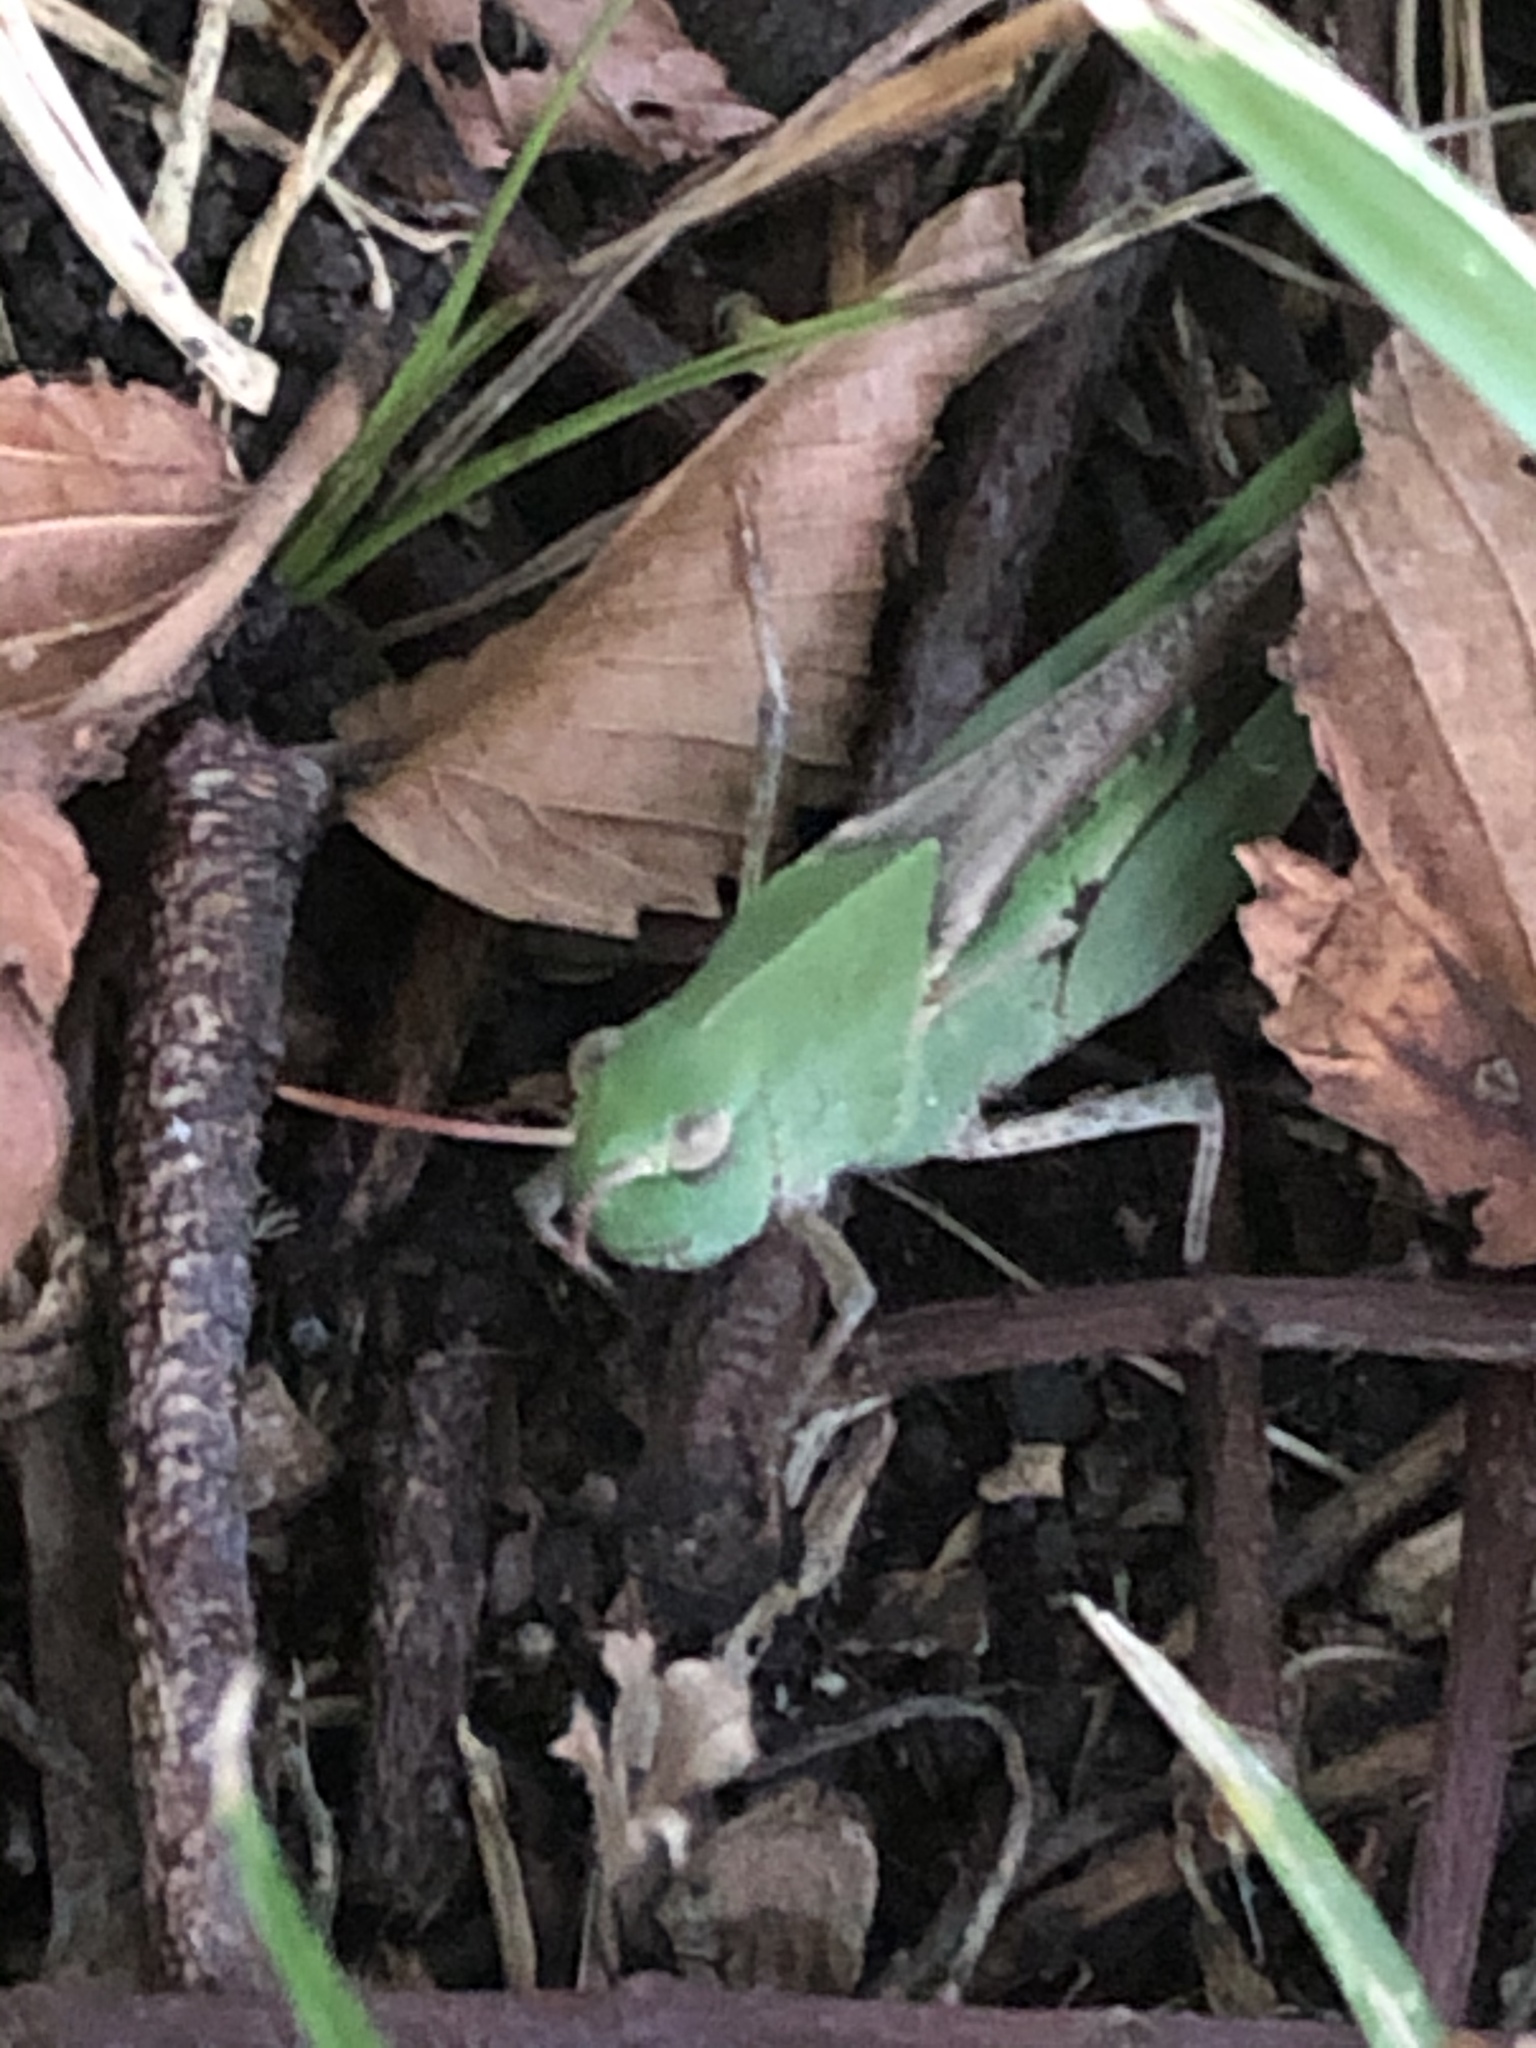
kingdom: Animalia
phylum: Arthropoda
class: Insecta
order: Orthoptera
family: Acrididae
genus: Chortophaga
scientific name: Chortophaga viridifasciata
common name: Green-striped grasshopper
